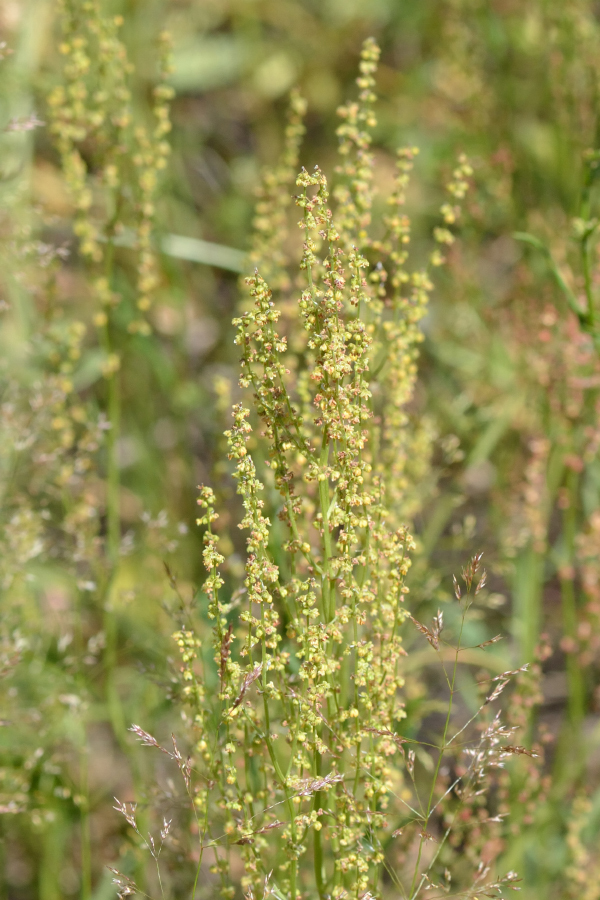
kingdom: Plantae
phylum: Tracheophyta
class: Magnoliopsida
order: Caryophyllales
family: Polygonaceae
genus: Rumex
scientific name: Rumex acetosella
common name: Common sheep sorrel
